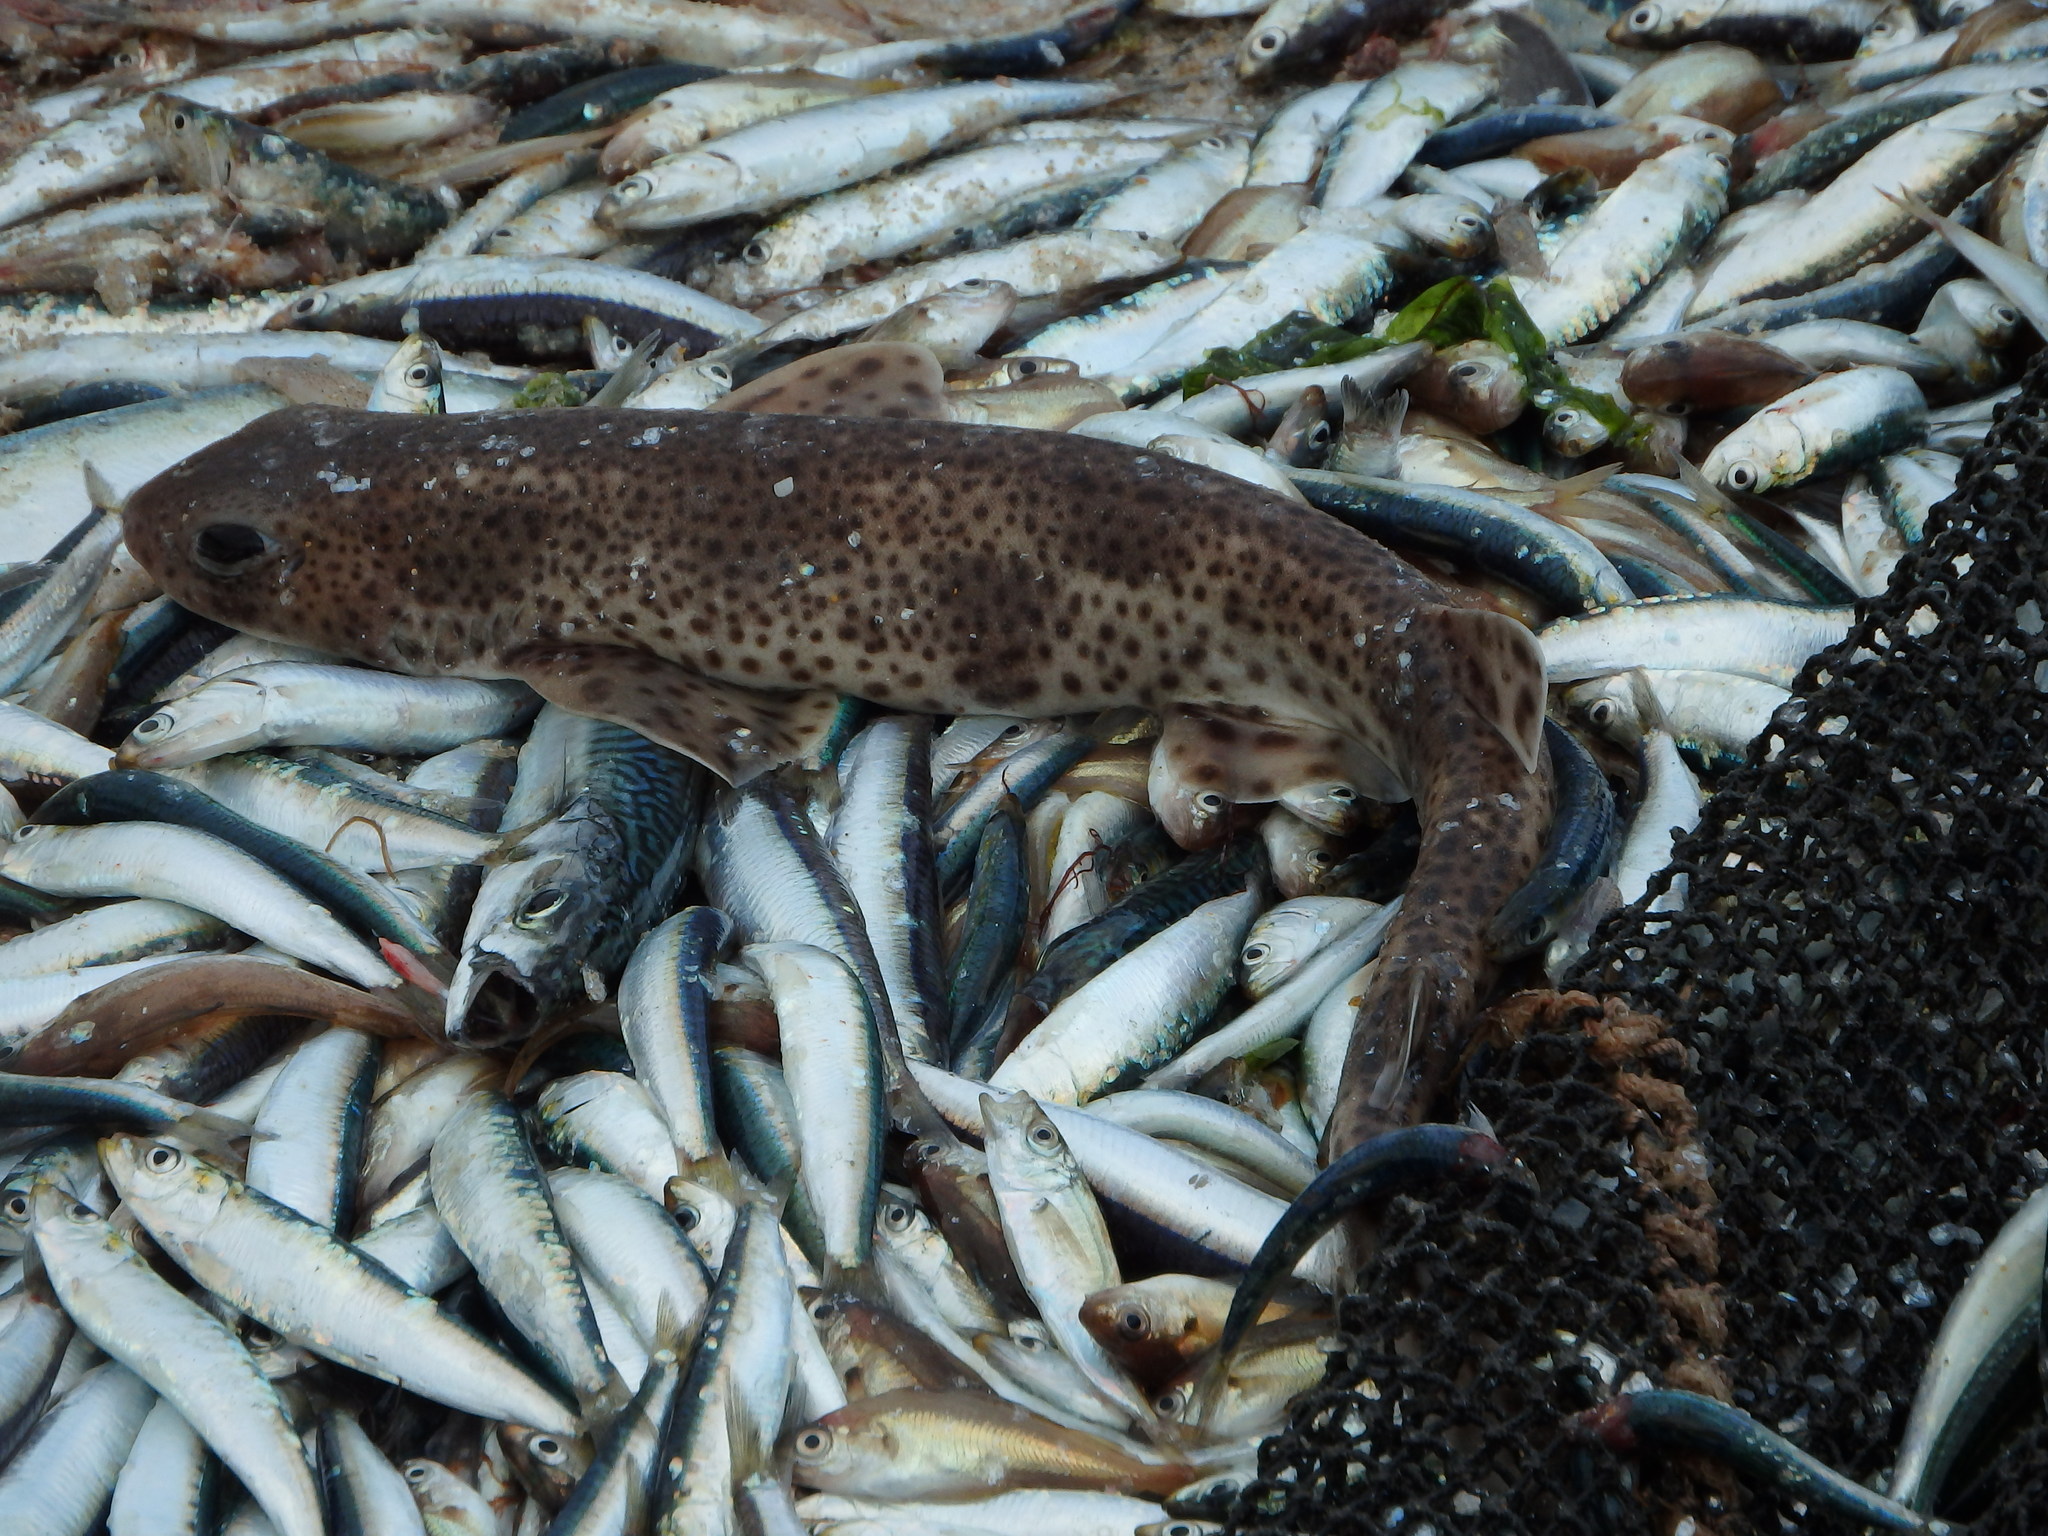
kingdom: Animalia
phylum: Chordata
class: Elasmobranchii
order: Carcharhiniformes
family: Scyliorhinidae
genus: Scyliorhinus
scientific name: Scyliorhinus canicula
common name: Lesser spotted dogfish
